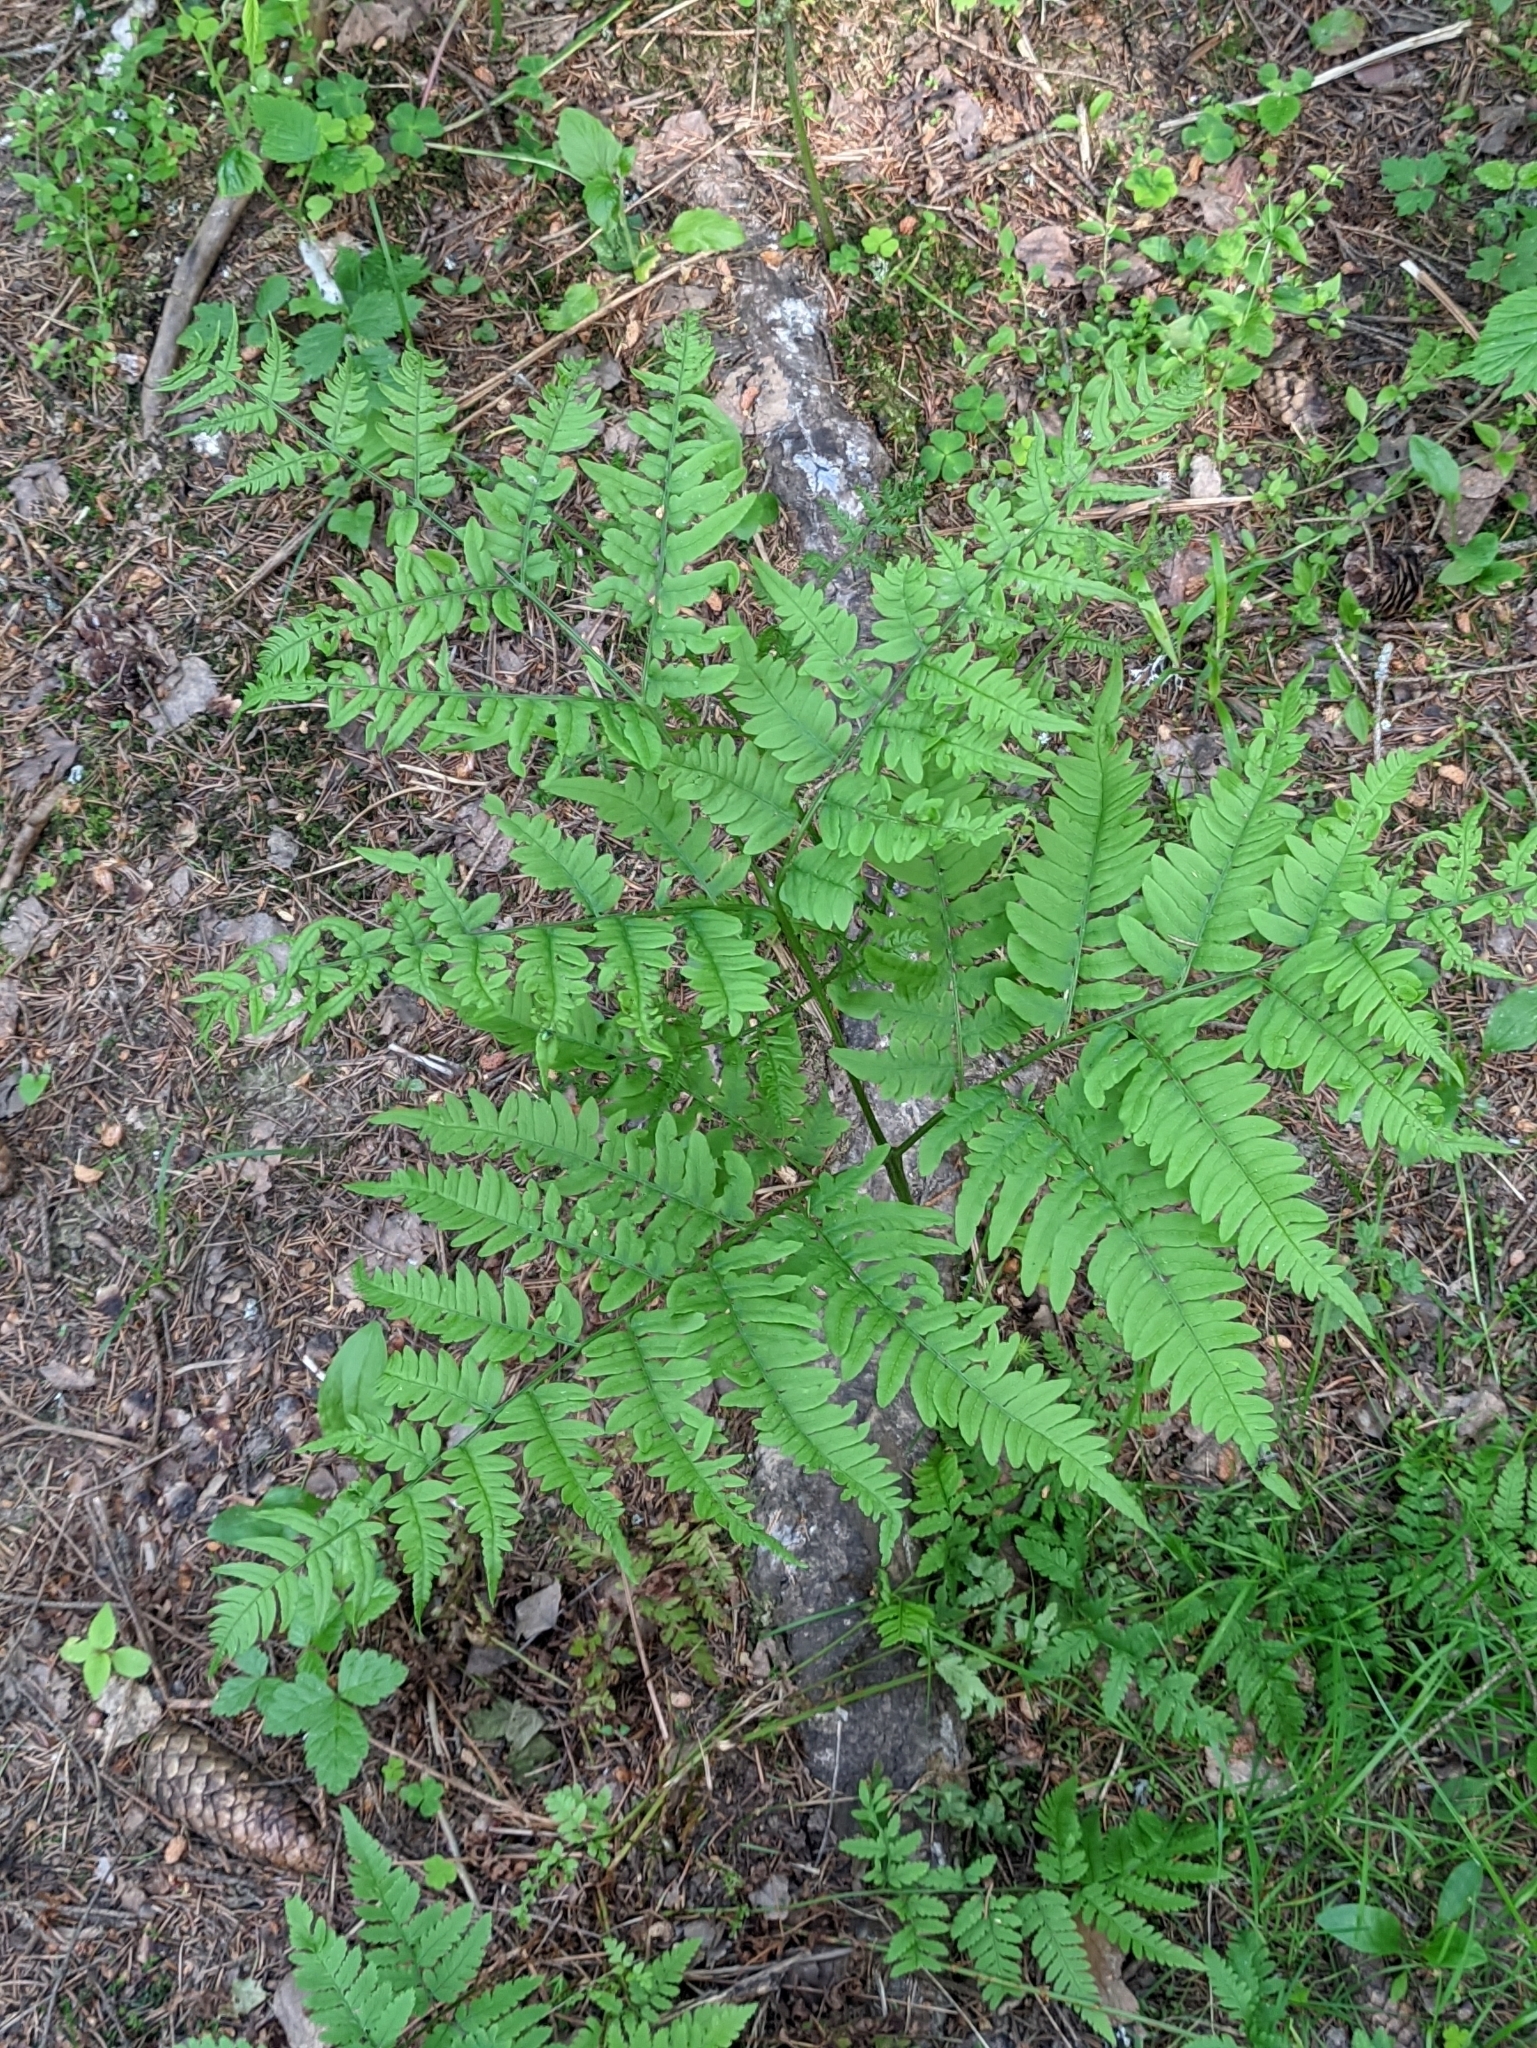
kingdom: Plantae
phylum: Tracheophyta
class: Polypodiopsida
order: Polypodiales
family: Dennstaedtiaceae
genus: Pteridium
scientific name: Pteridium aquilinum
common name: Bracken
